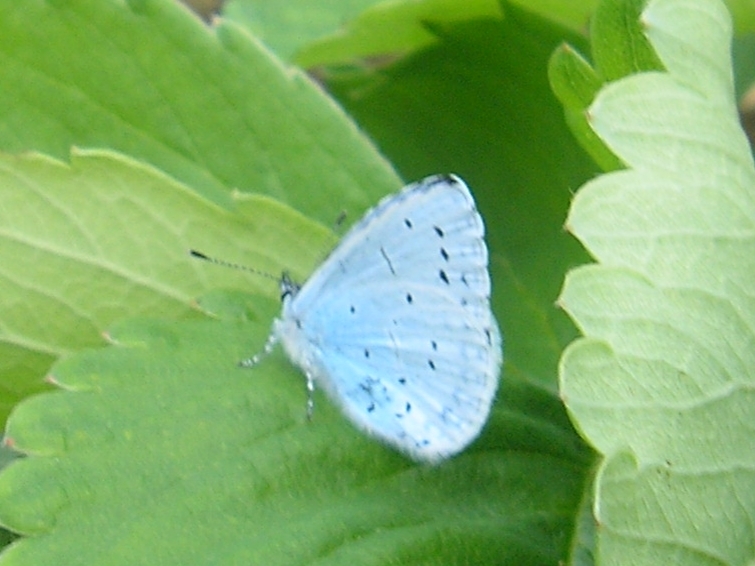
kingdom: Animalia
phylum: Arthropoda
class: Insecta
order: Lepidoptera
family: Lycaenidae
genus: Celastrina
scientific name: Celastrina argiolus
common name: Holly blue
